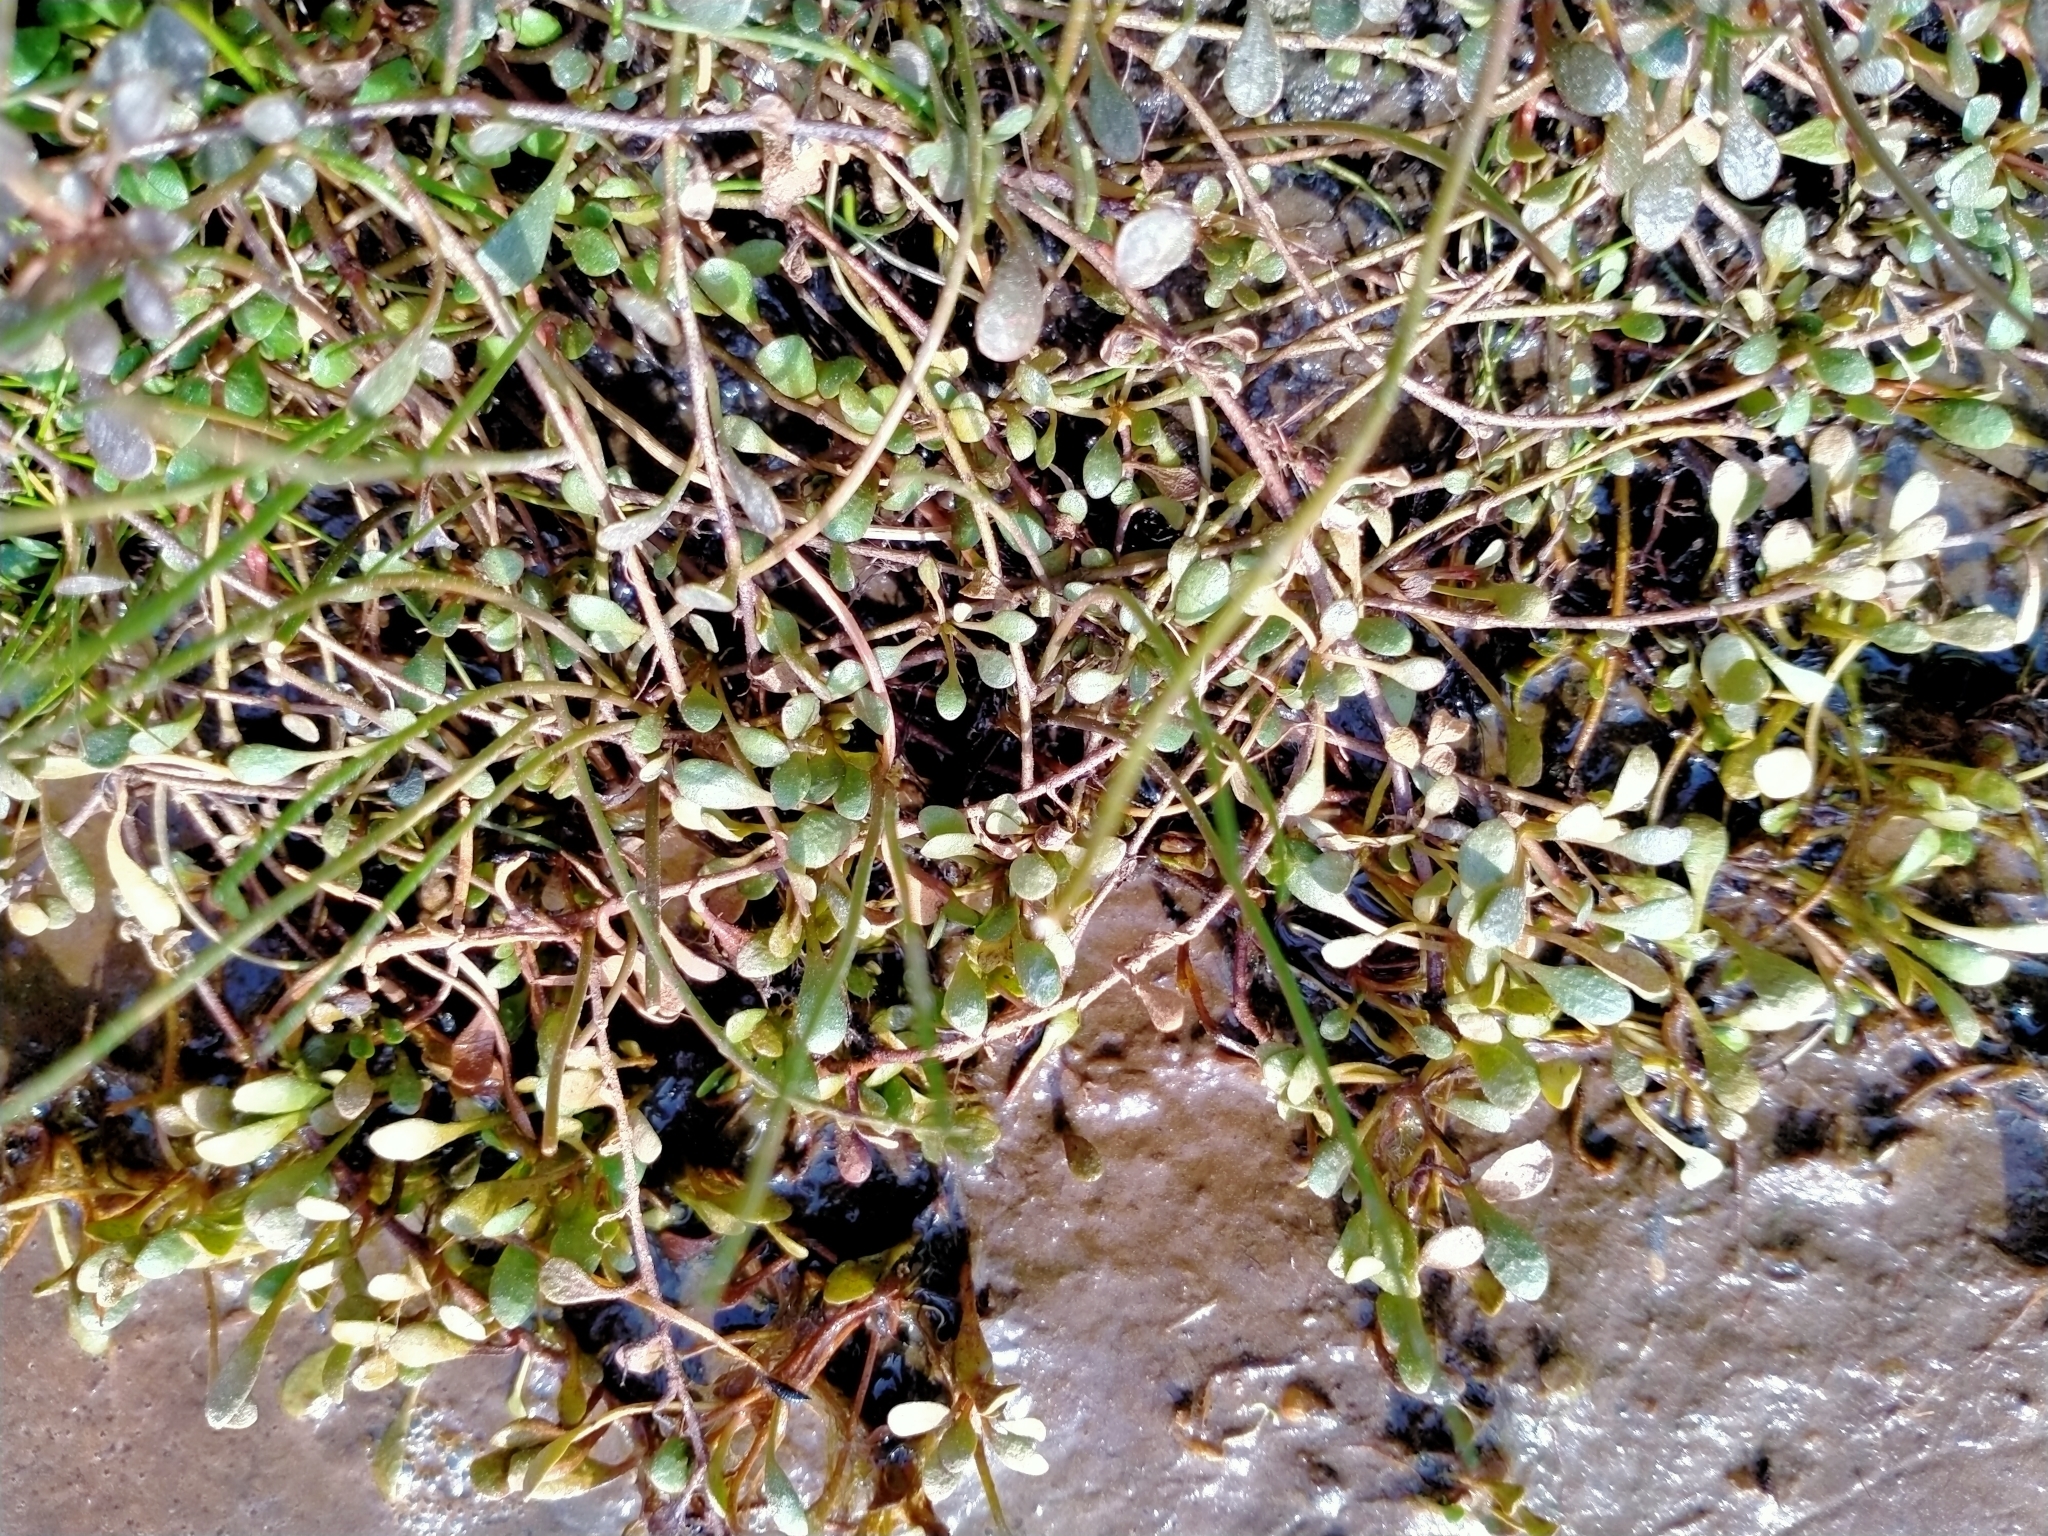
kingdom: Plantae
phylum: Tracheophyta
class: Magnoliopsida
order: Ericales
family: Primulaceae
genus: Samolus
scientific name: Samolus repens
